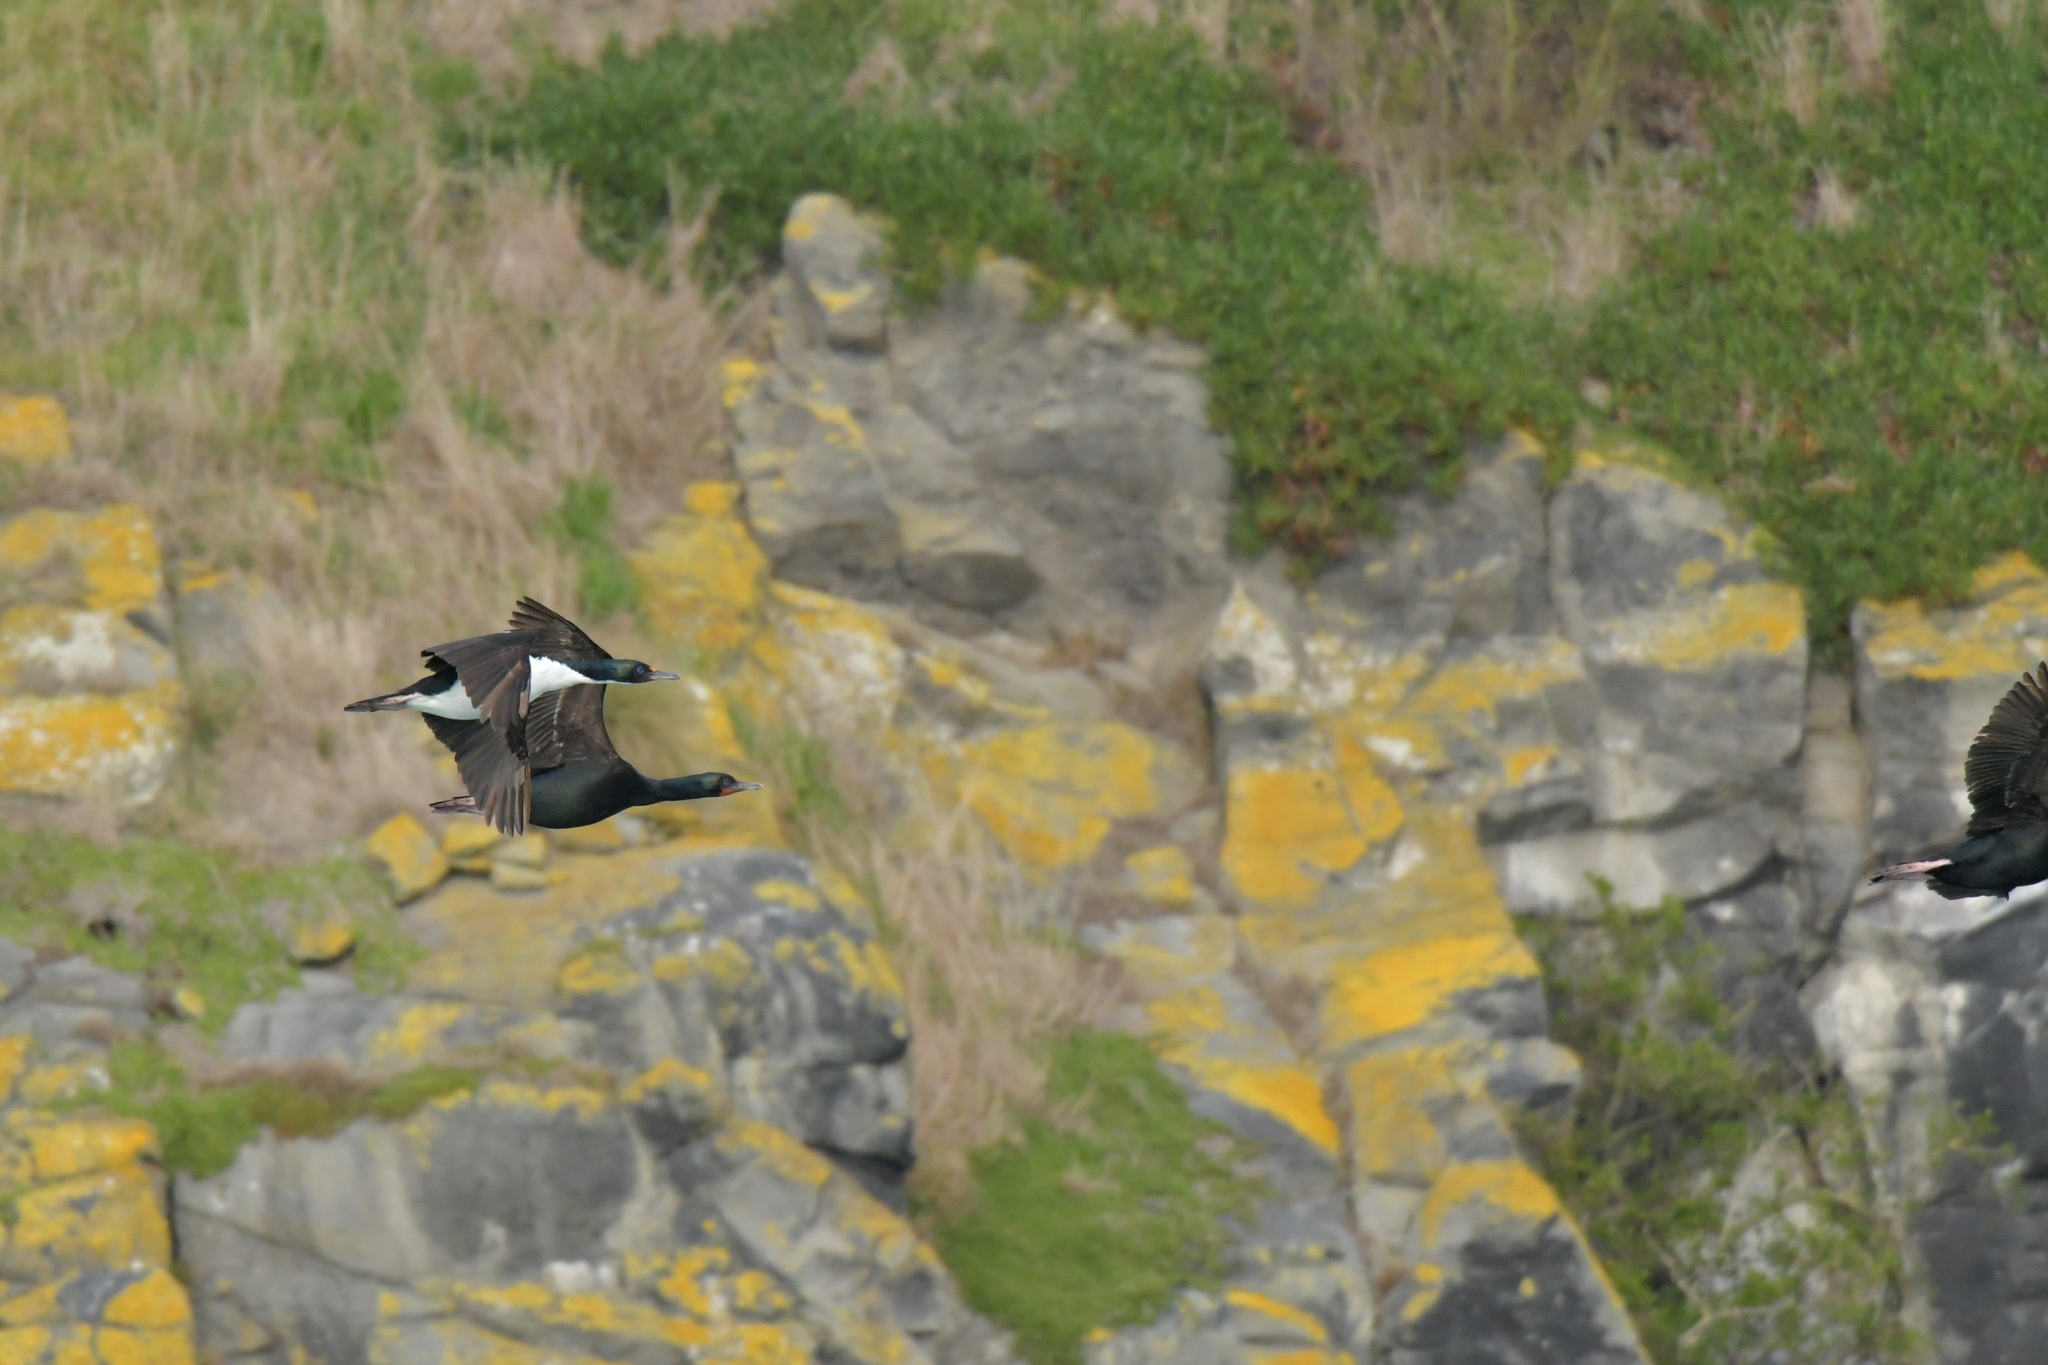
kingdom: Animalia
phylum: Chordata
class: Aves
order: Suliformes
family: Phalacrocoracidae
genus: Leucocarbo
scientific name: Leucocarbo chalconotus
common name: Stewart shag
